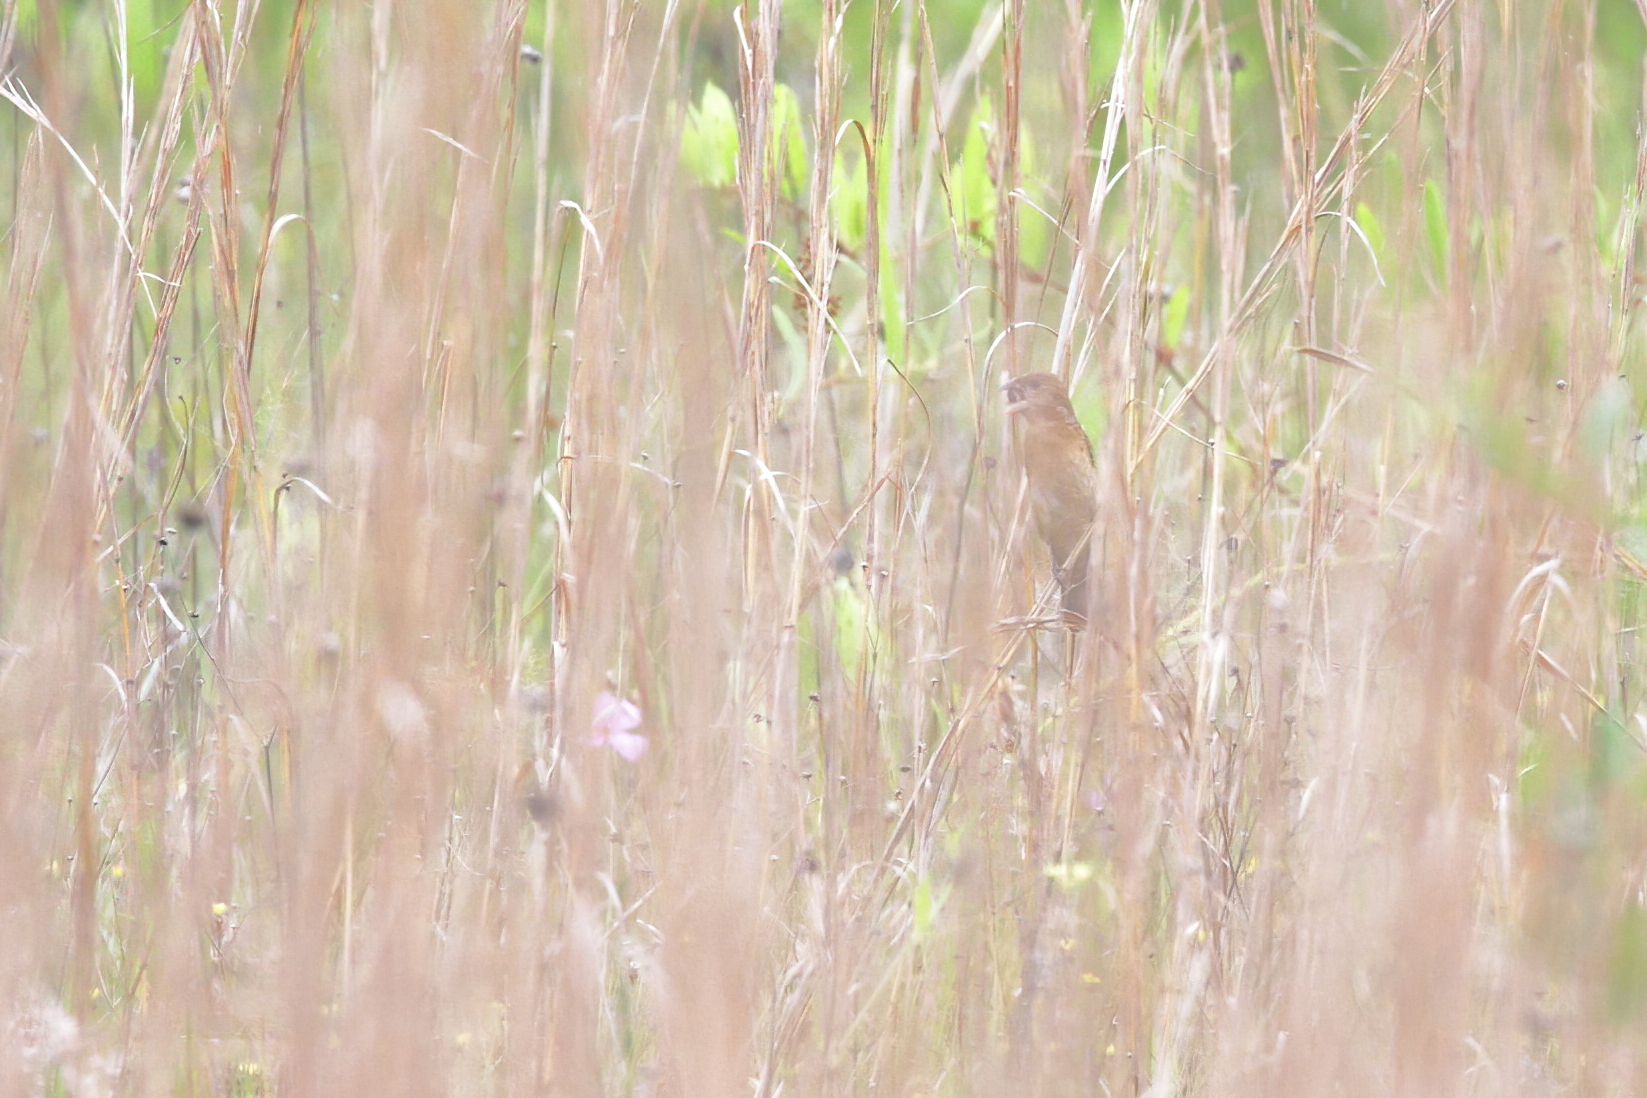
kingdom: Animalia
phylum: Chordata
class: Aves
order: Passeriformes
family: Cardinalidae
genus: Passerina
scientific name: Passerina caerulea
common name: Blue grosbeak
